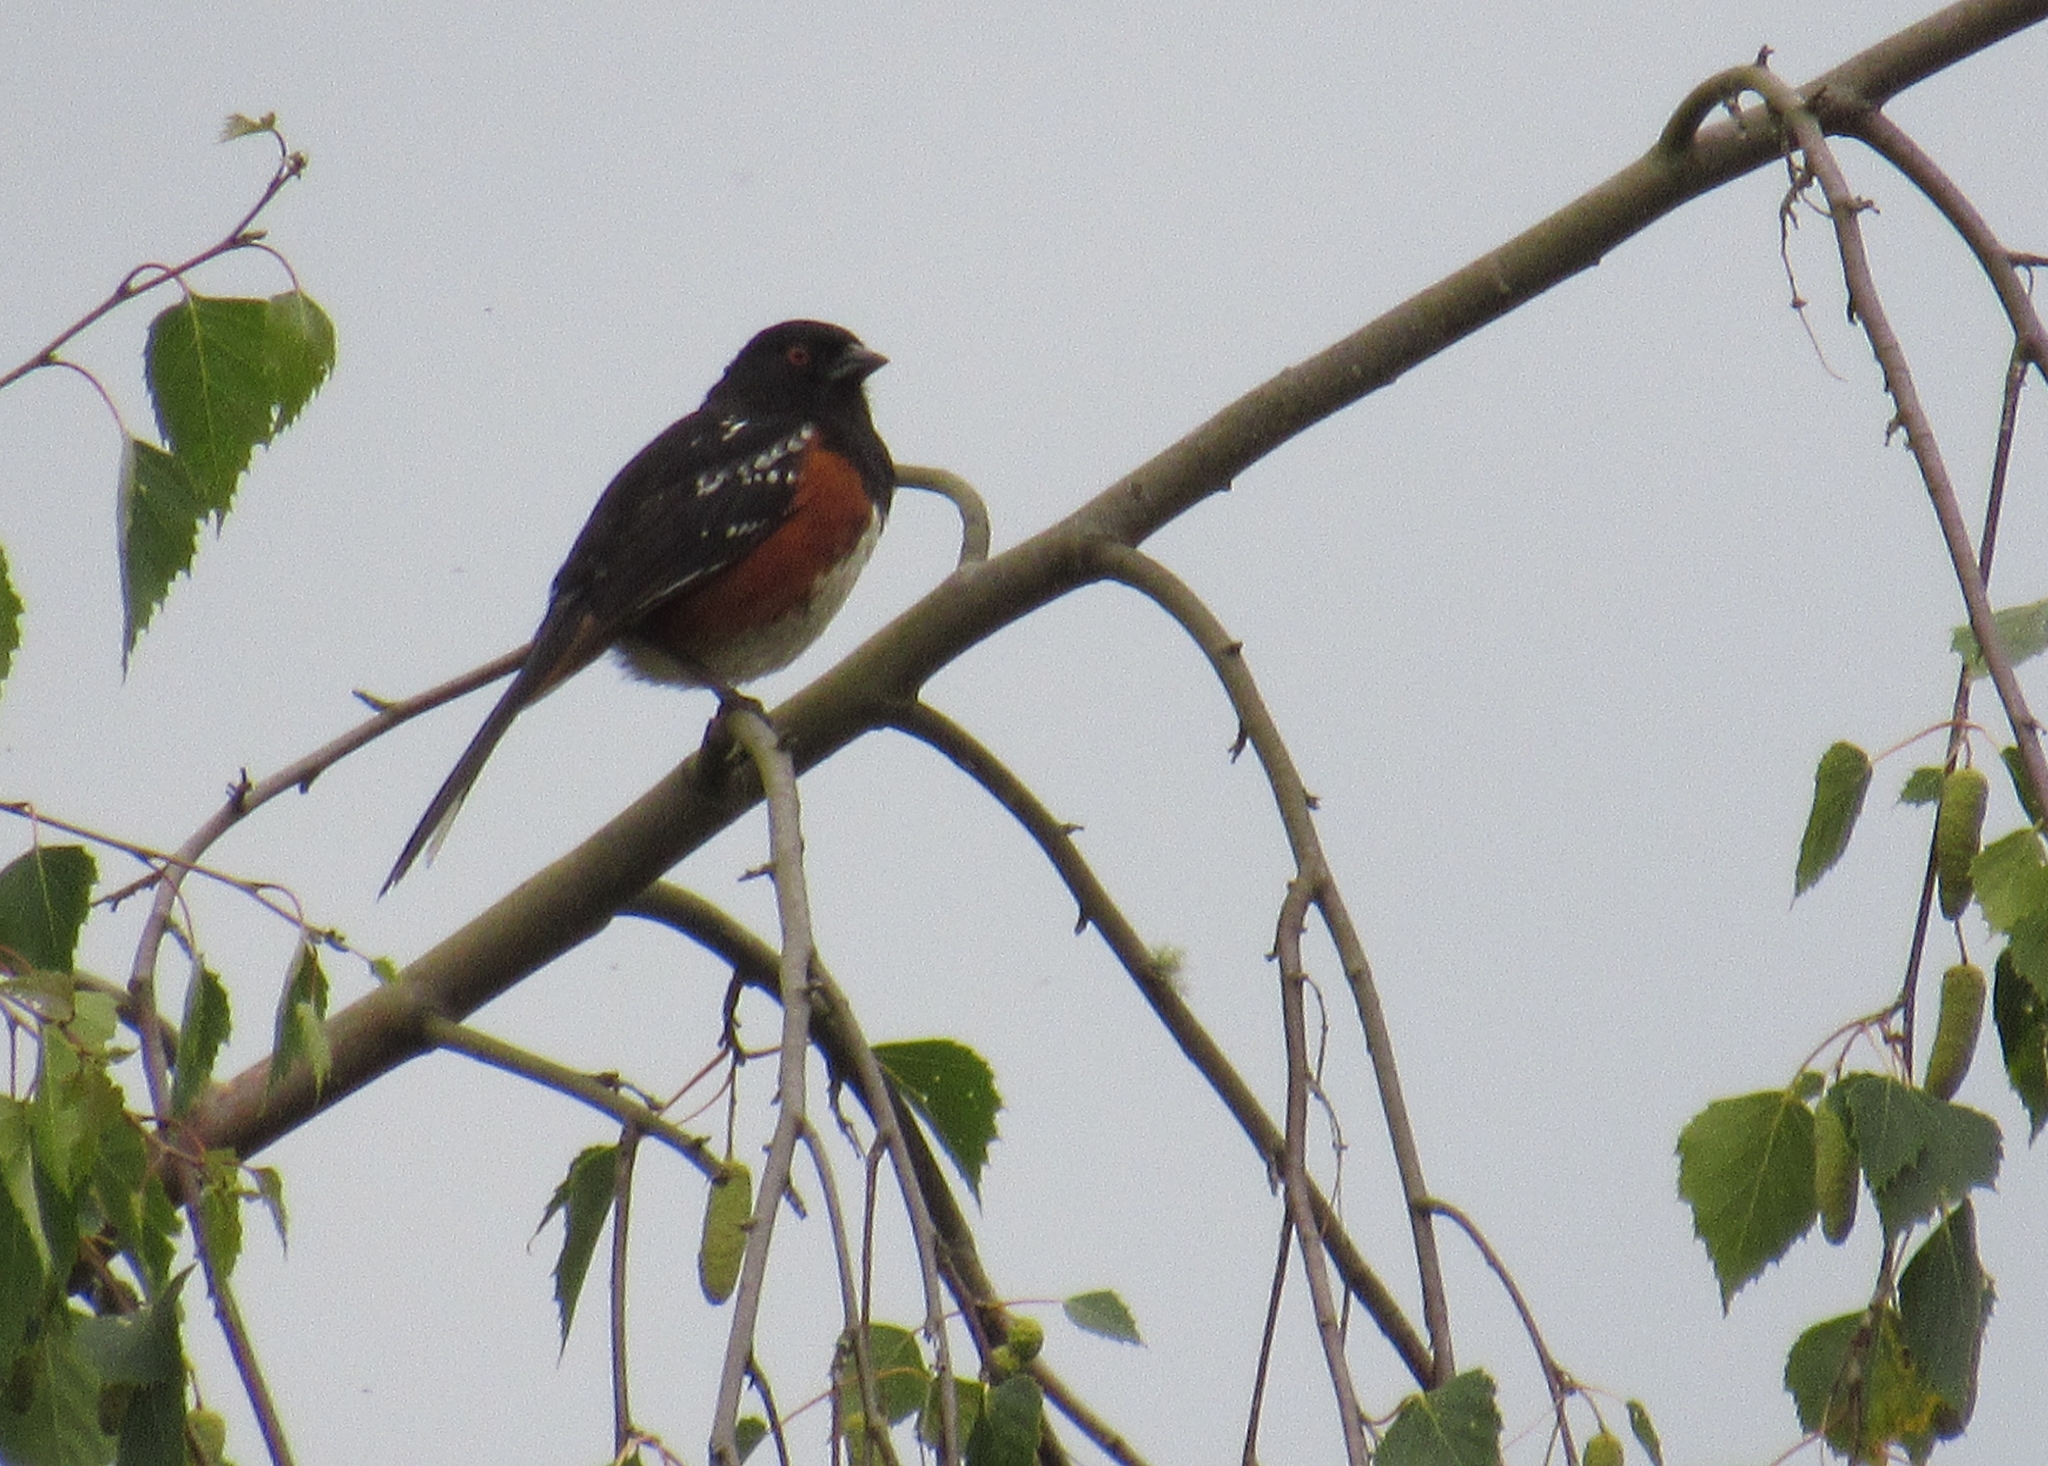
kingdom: Animalia
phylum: Chordata
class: Aves
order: Passeriformes
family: Passerellidae
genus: Pipilo
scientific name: Pipilo maculatus
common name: Spotted towhee
